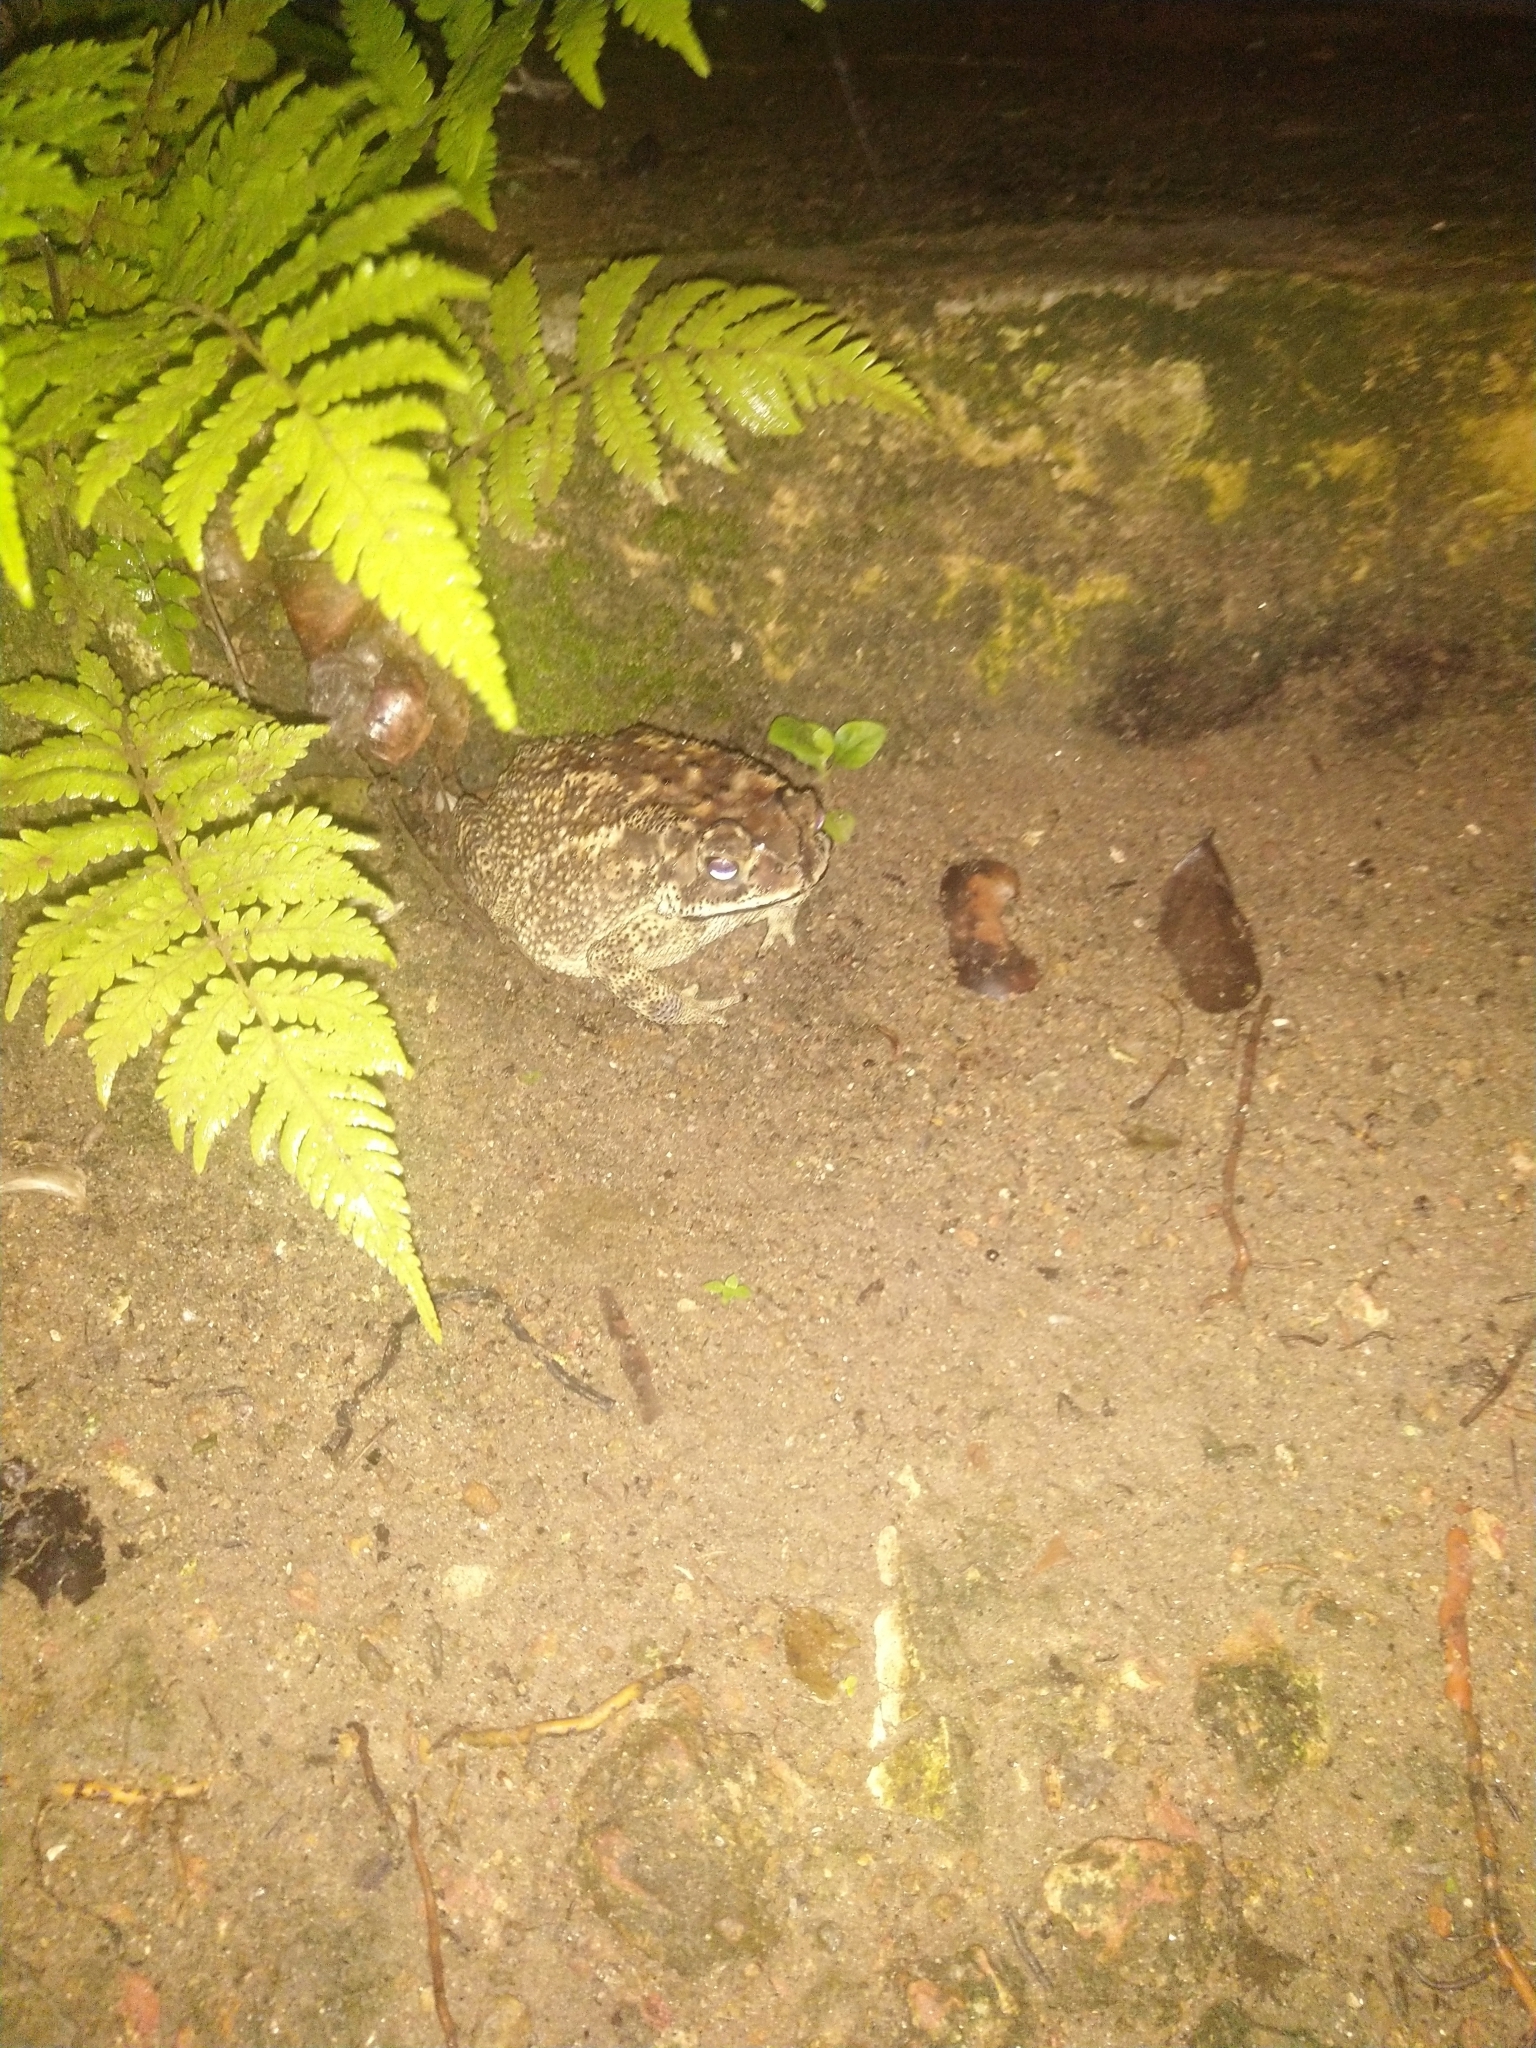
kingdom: Animalia
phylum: Chordata
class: Amphibia
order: Anura
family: Bufonidae
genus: Duttaphrynus
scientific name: Duttaphrynus melanostictus
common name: Common sunda toad
